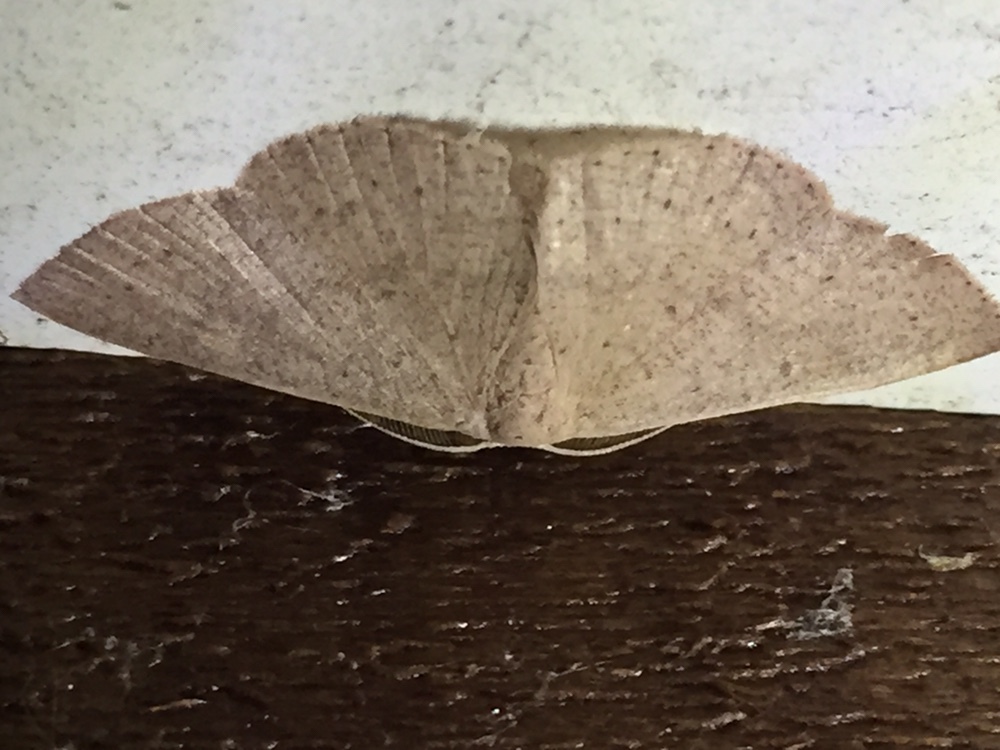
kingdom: Animalia
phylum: Arthropoda
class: Insecta
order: Lepidoptera
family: Geometridae
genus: Cyclophora
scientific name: Cyclophora obstataria
